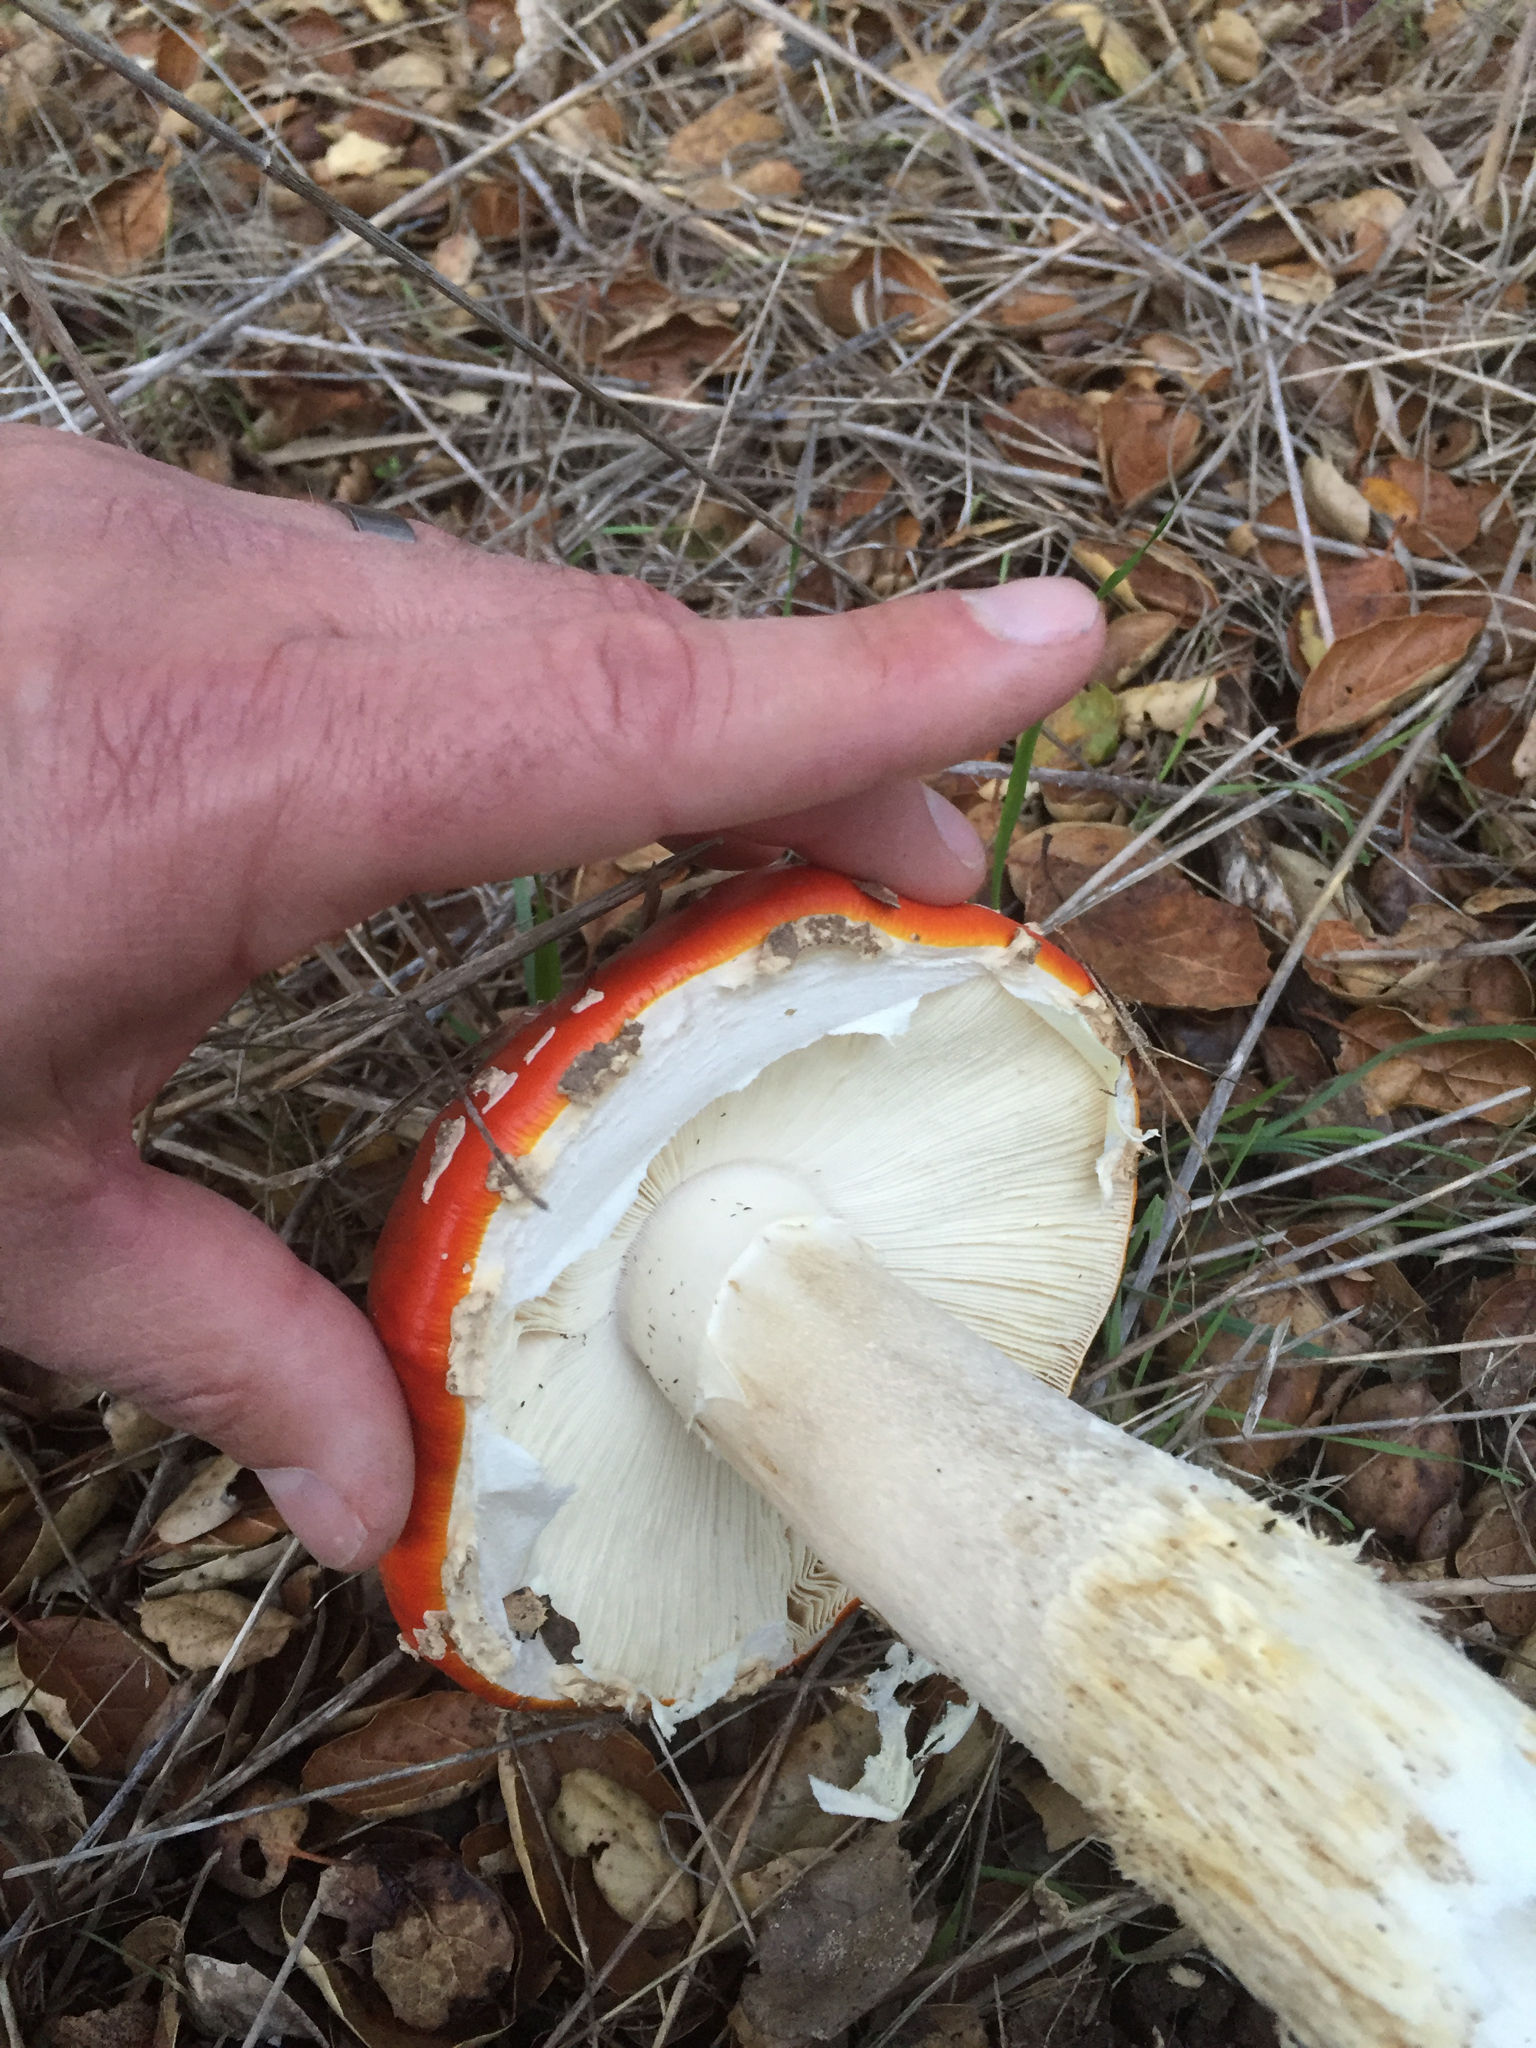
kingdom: Fungi
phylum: Basidiomycota
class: Agaricomycetes
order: Agaricales
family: Amanitaceae
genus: Amanita
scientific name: Amanita muscaria
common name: Fly agaric
